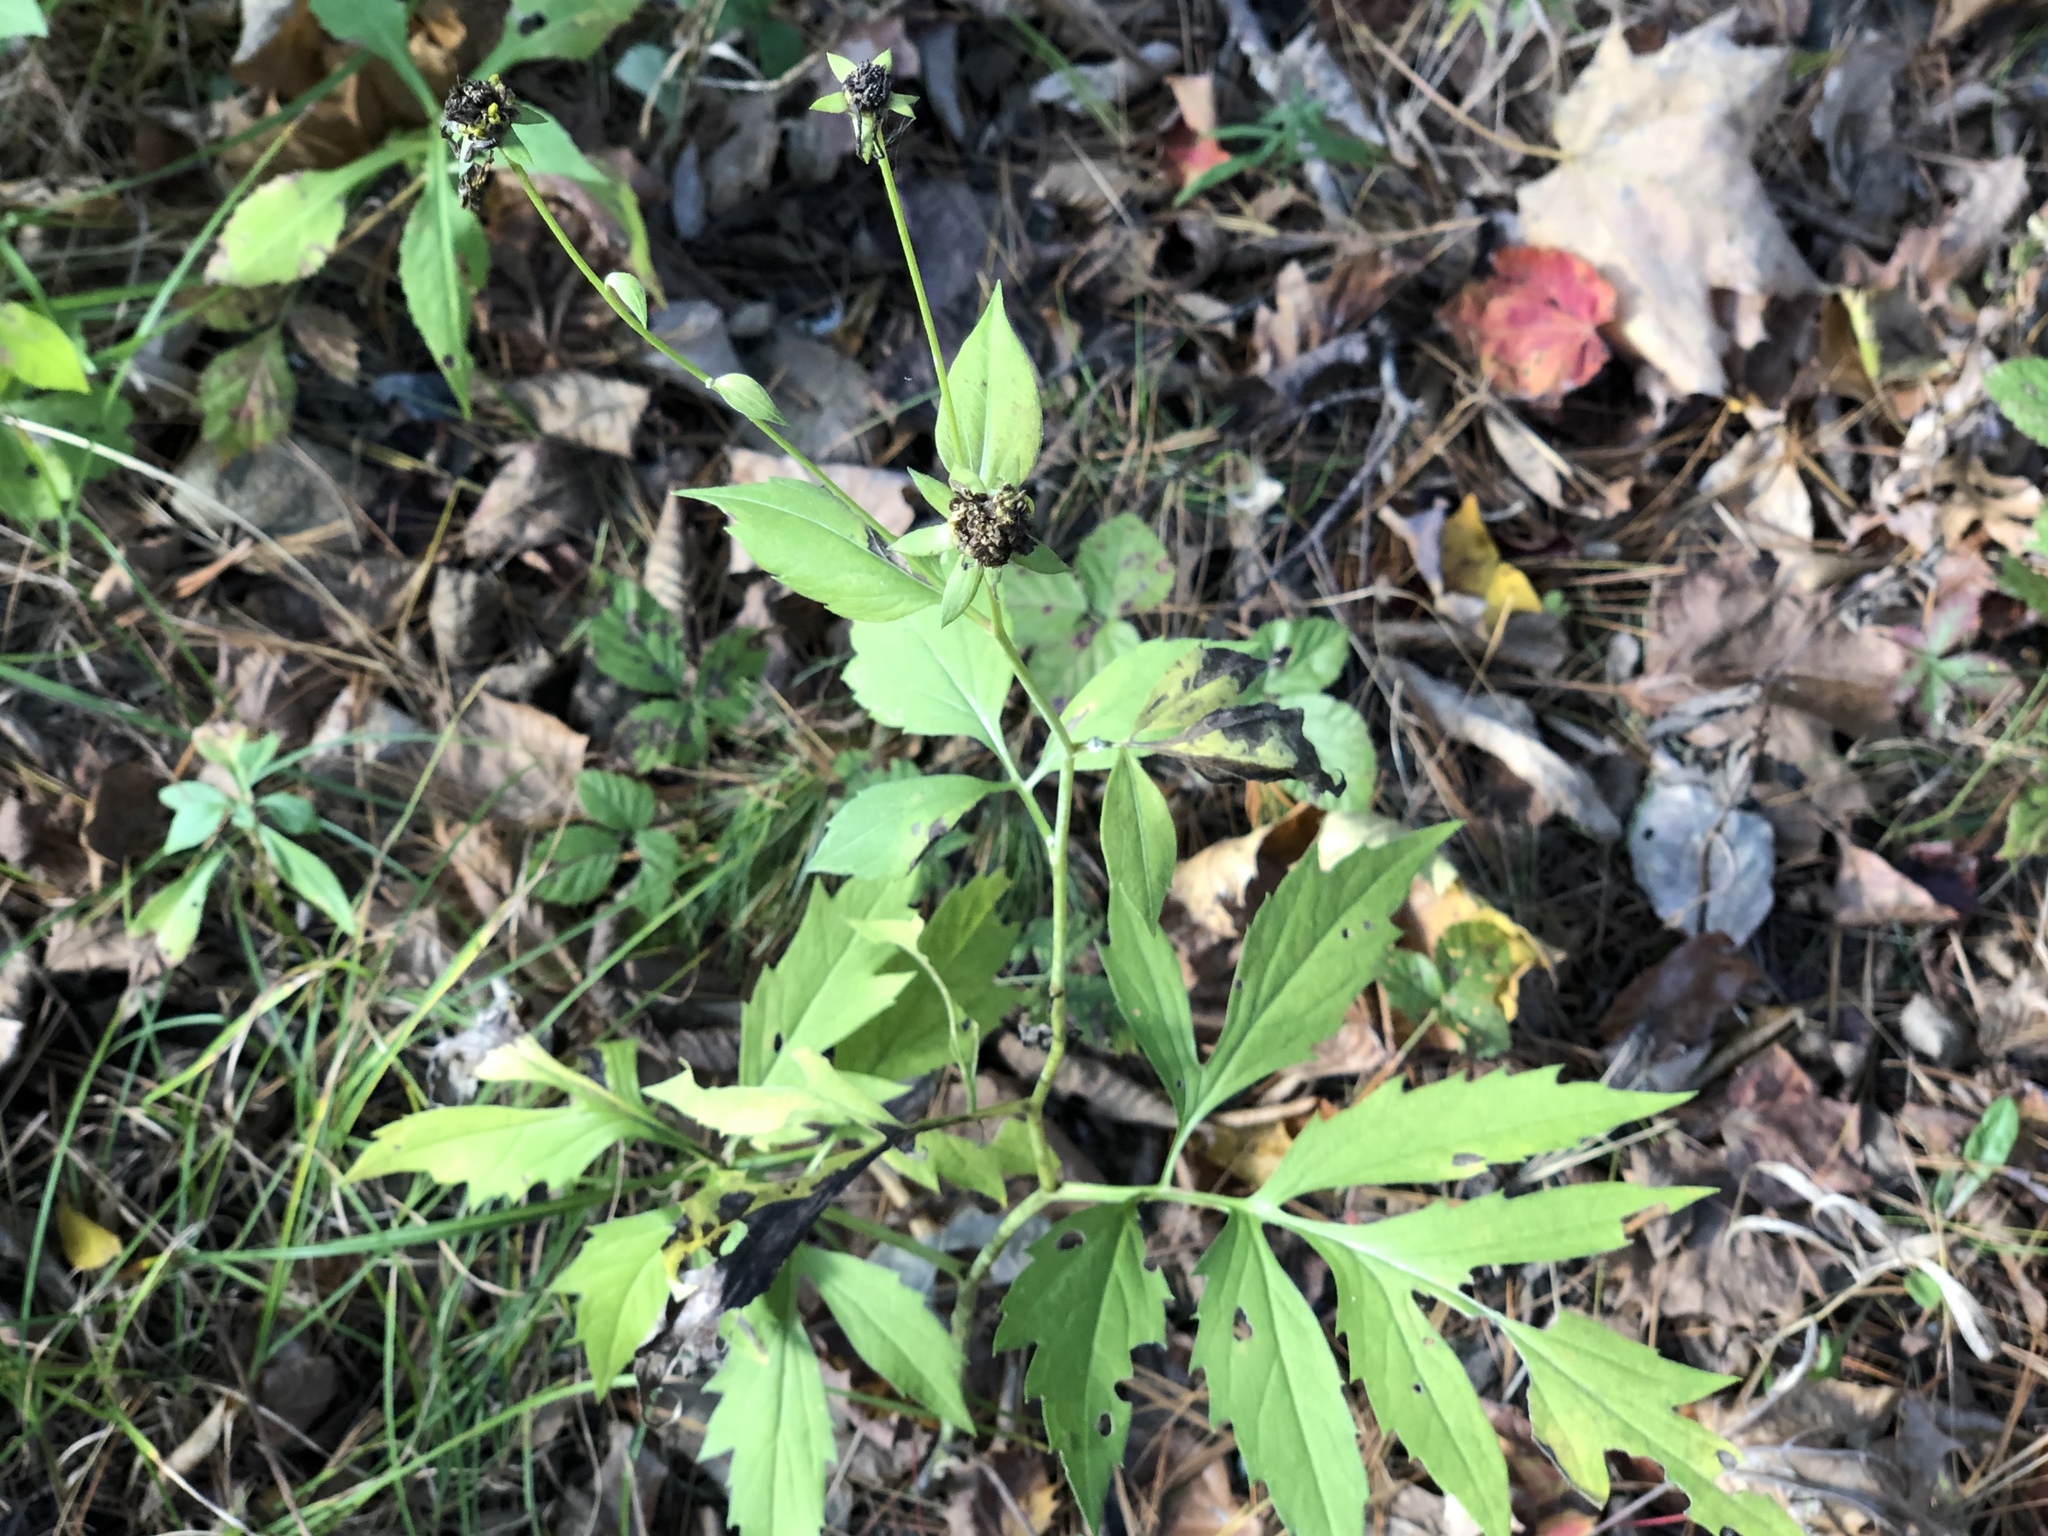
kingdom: Plantae
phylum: Tracheophyta
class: Magnoliopsida
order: Asterales
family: Asteraceae
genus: Rudbeckia
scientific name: Rudbeckia laciniata
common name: Coneflower
